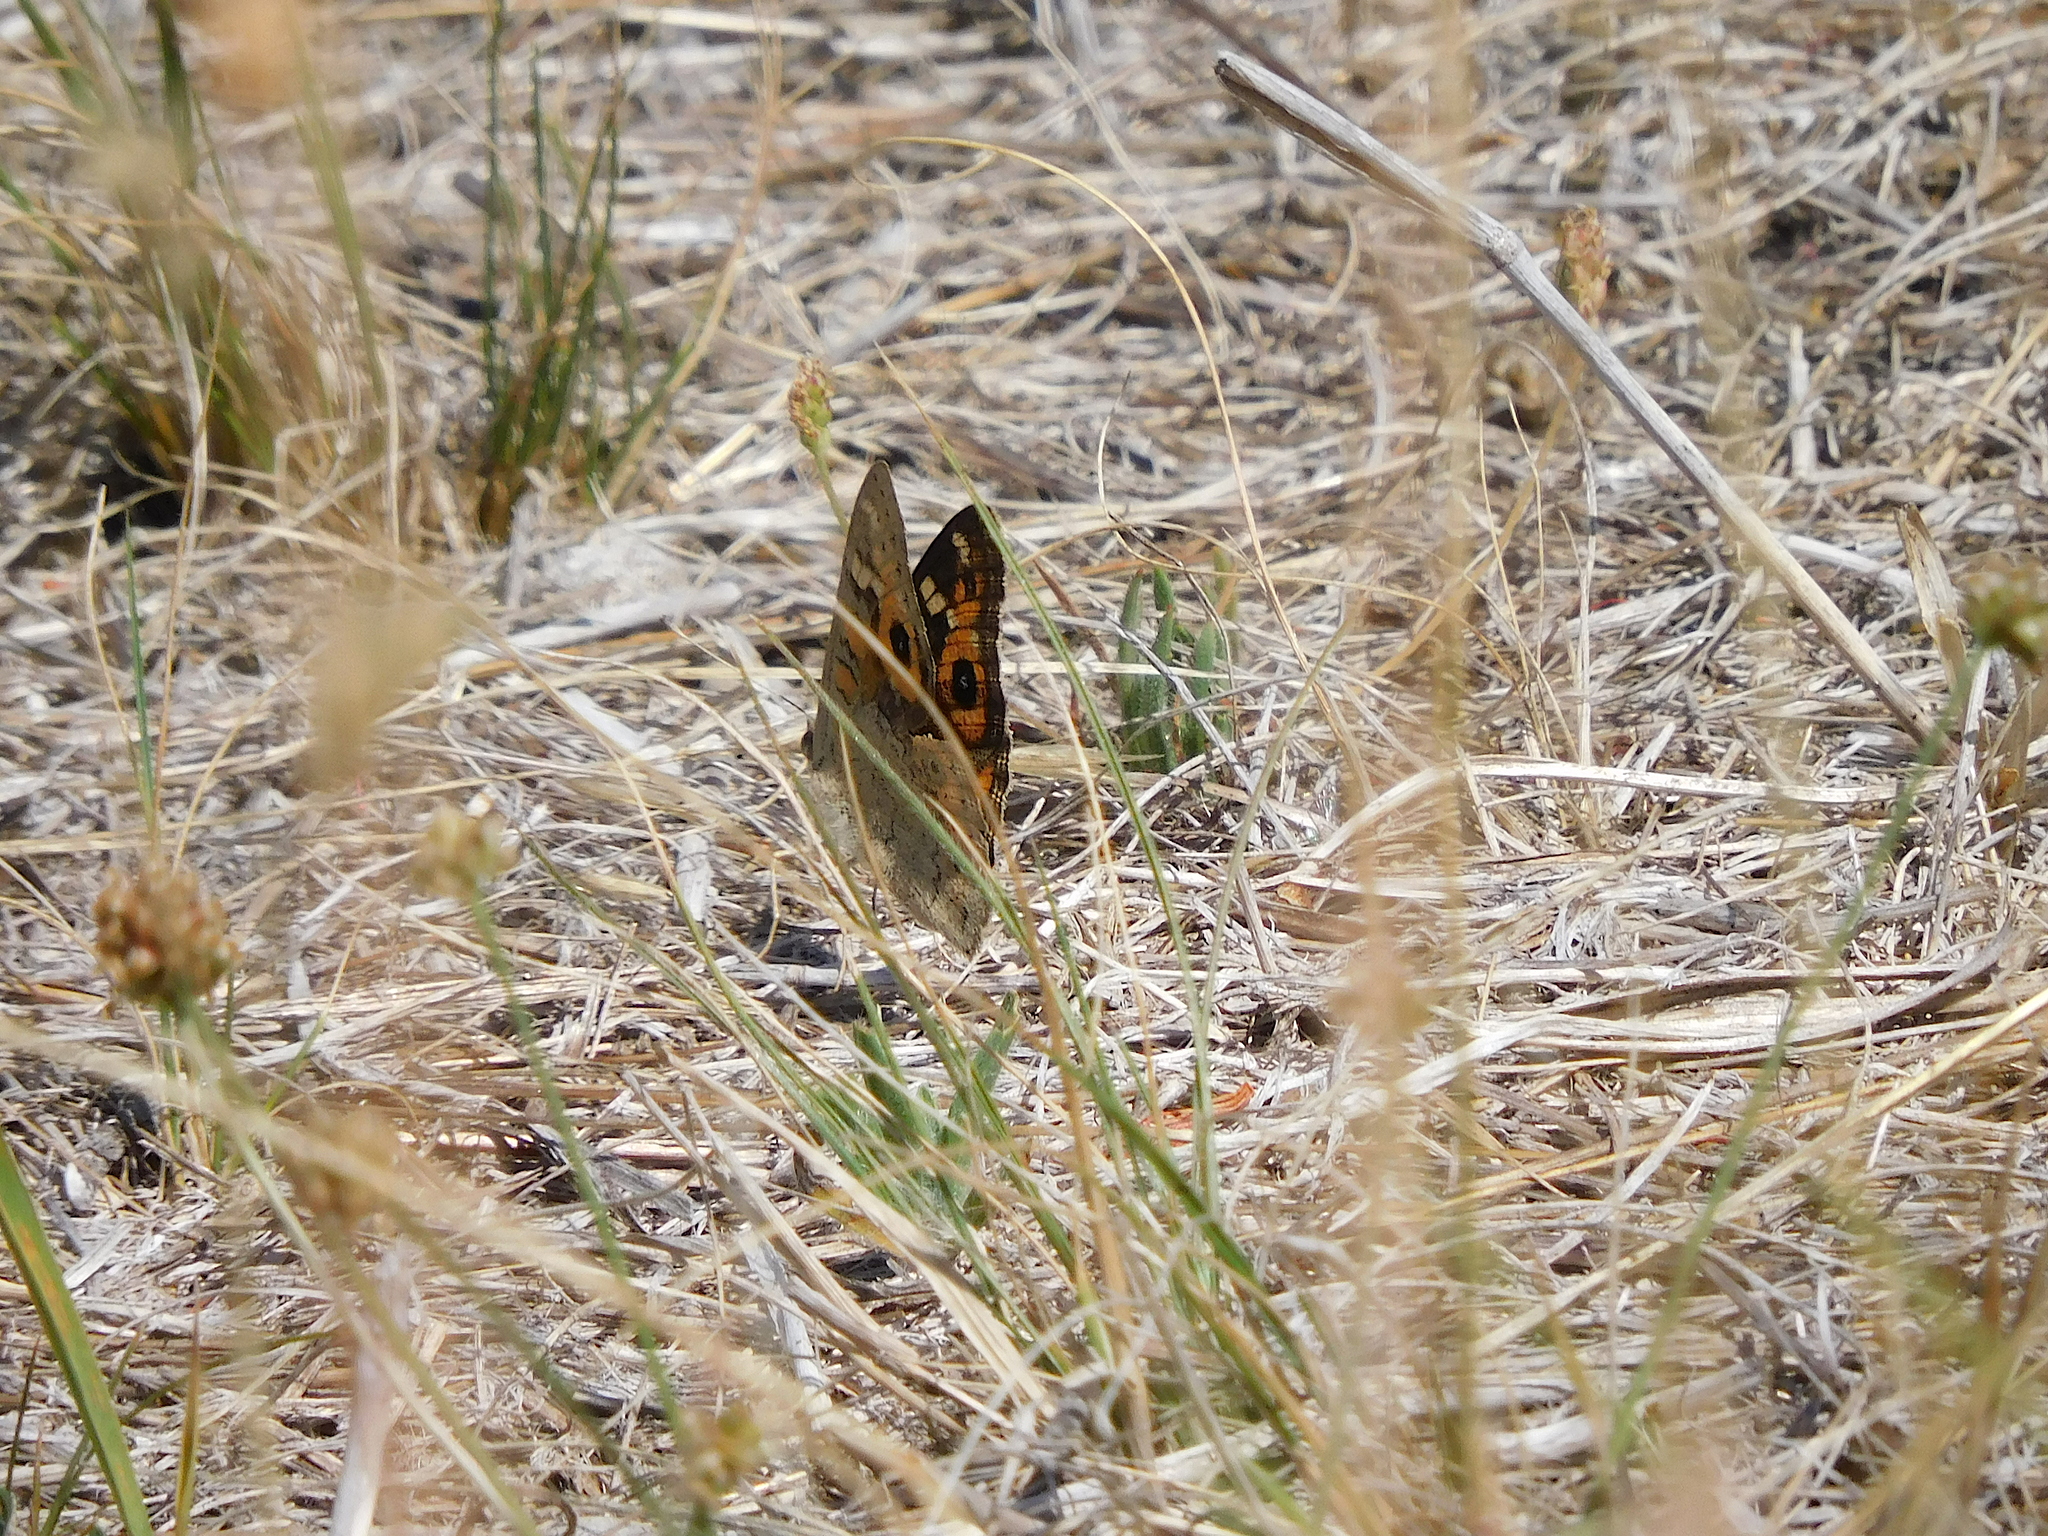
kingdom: Animalia
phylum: Arthropoda
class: Insecta
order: Lepidoptera
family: Nymphalidae
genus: Junonia
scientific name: Junonia villida
